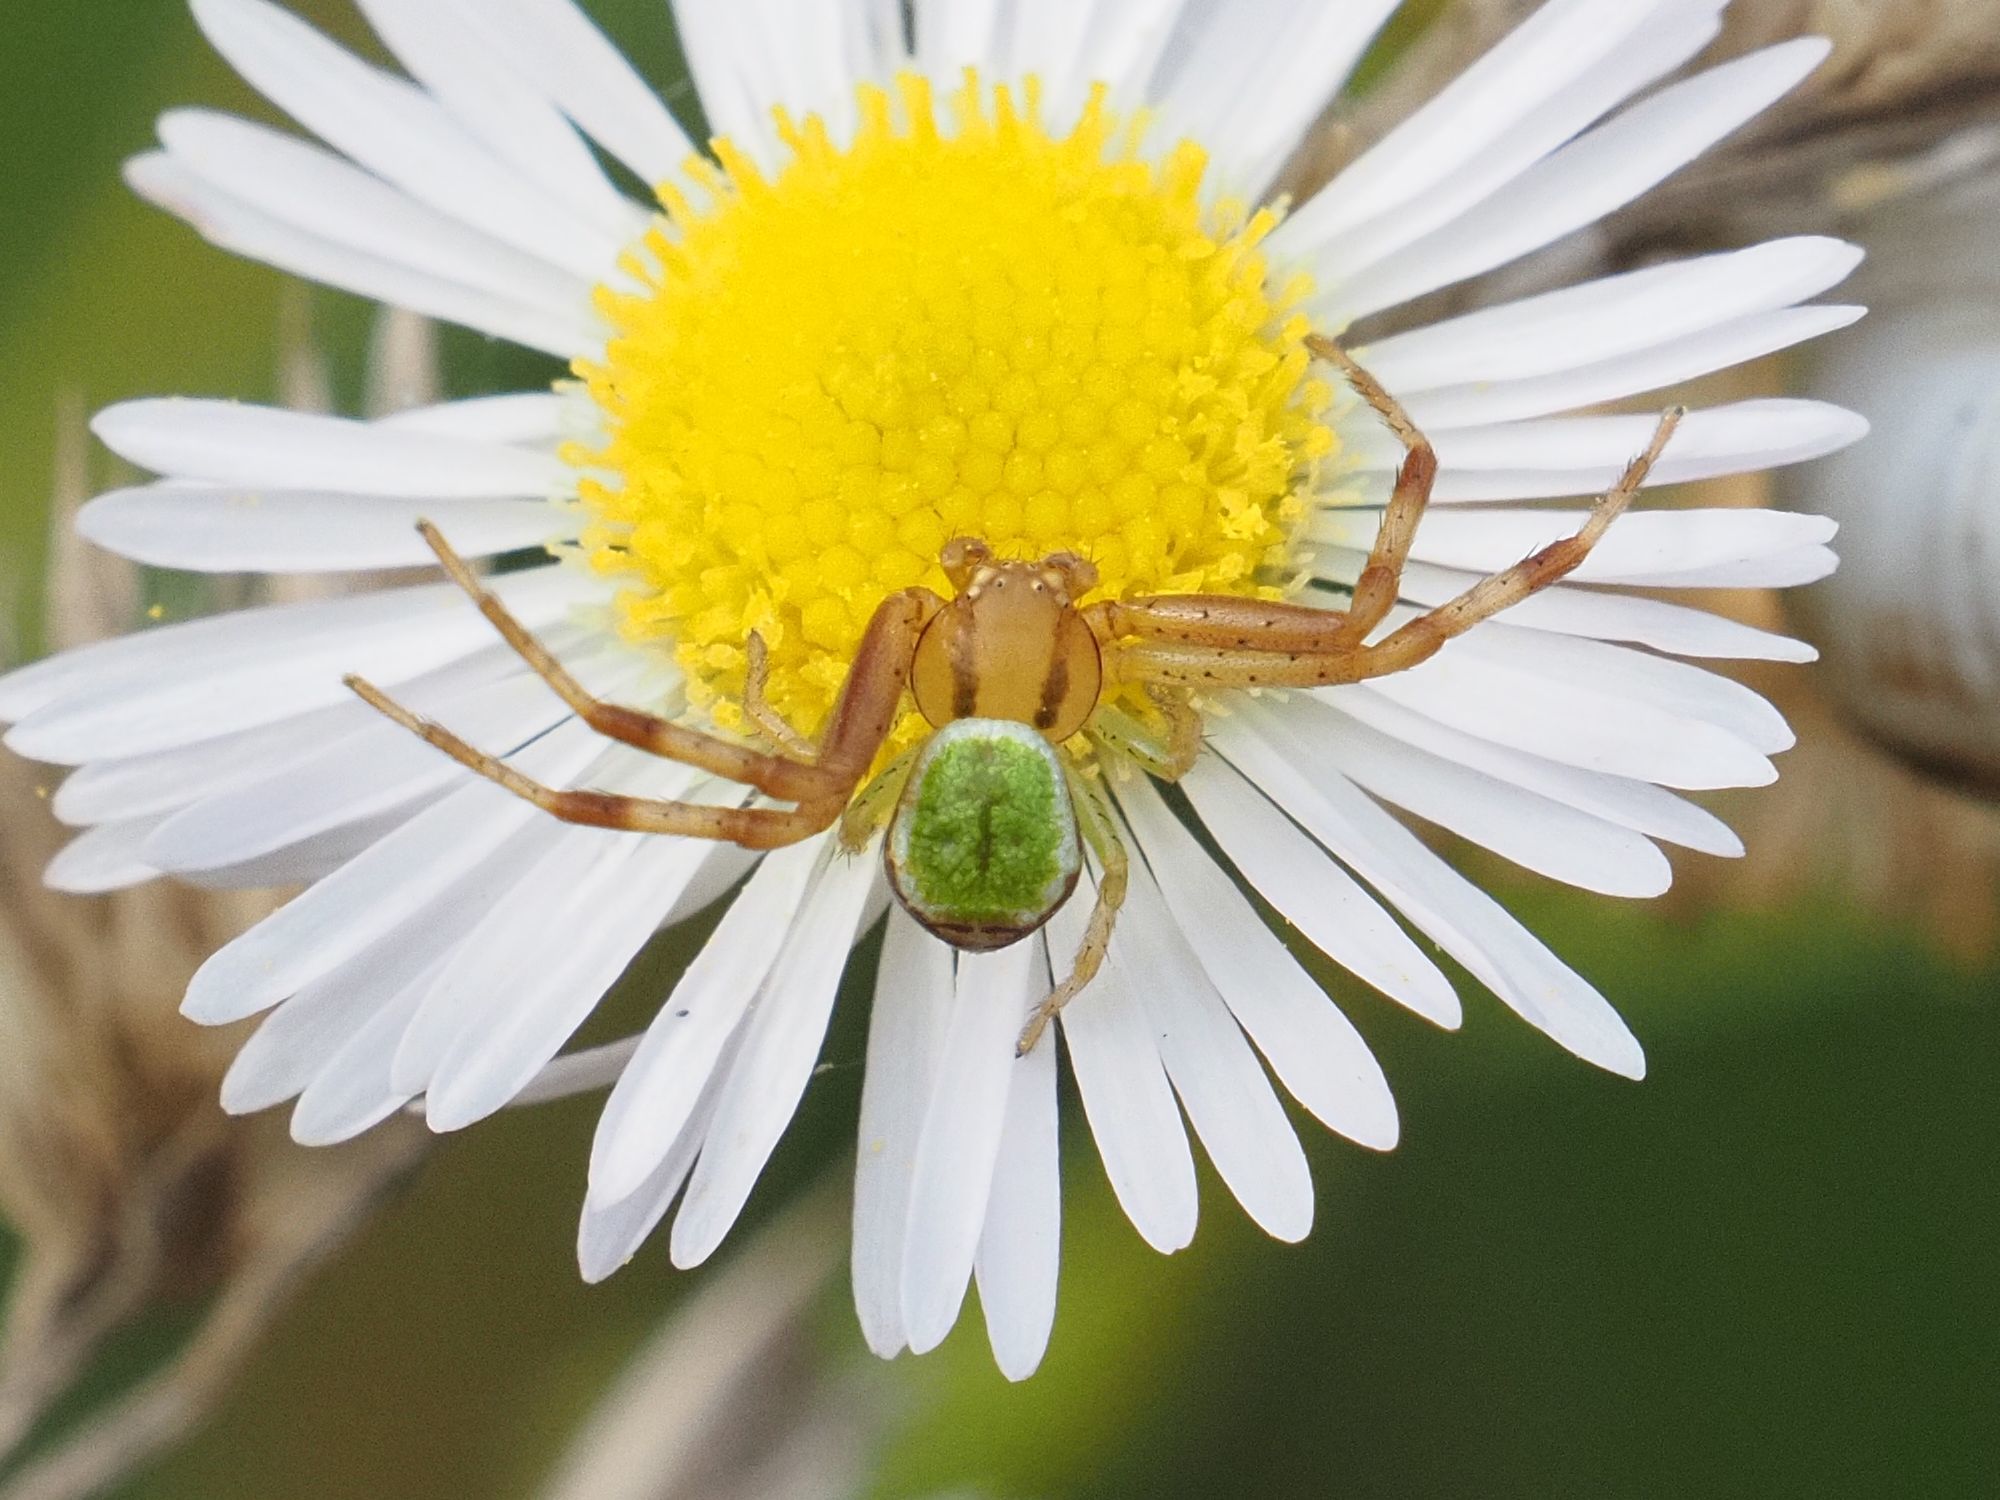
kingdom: Animalia
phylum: Arthropoda
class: Arachnida
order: Araneae
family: Thomisidae
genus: Ebrechtella
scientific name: Ebrechtella tricuspidata
